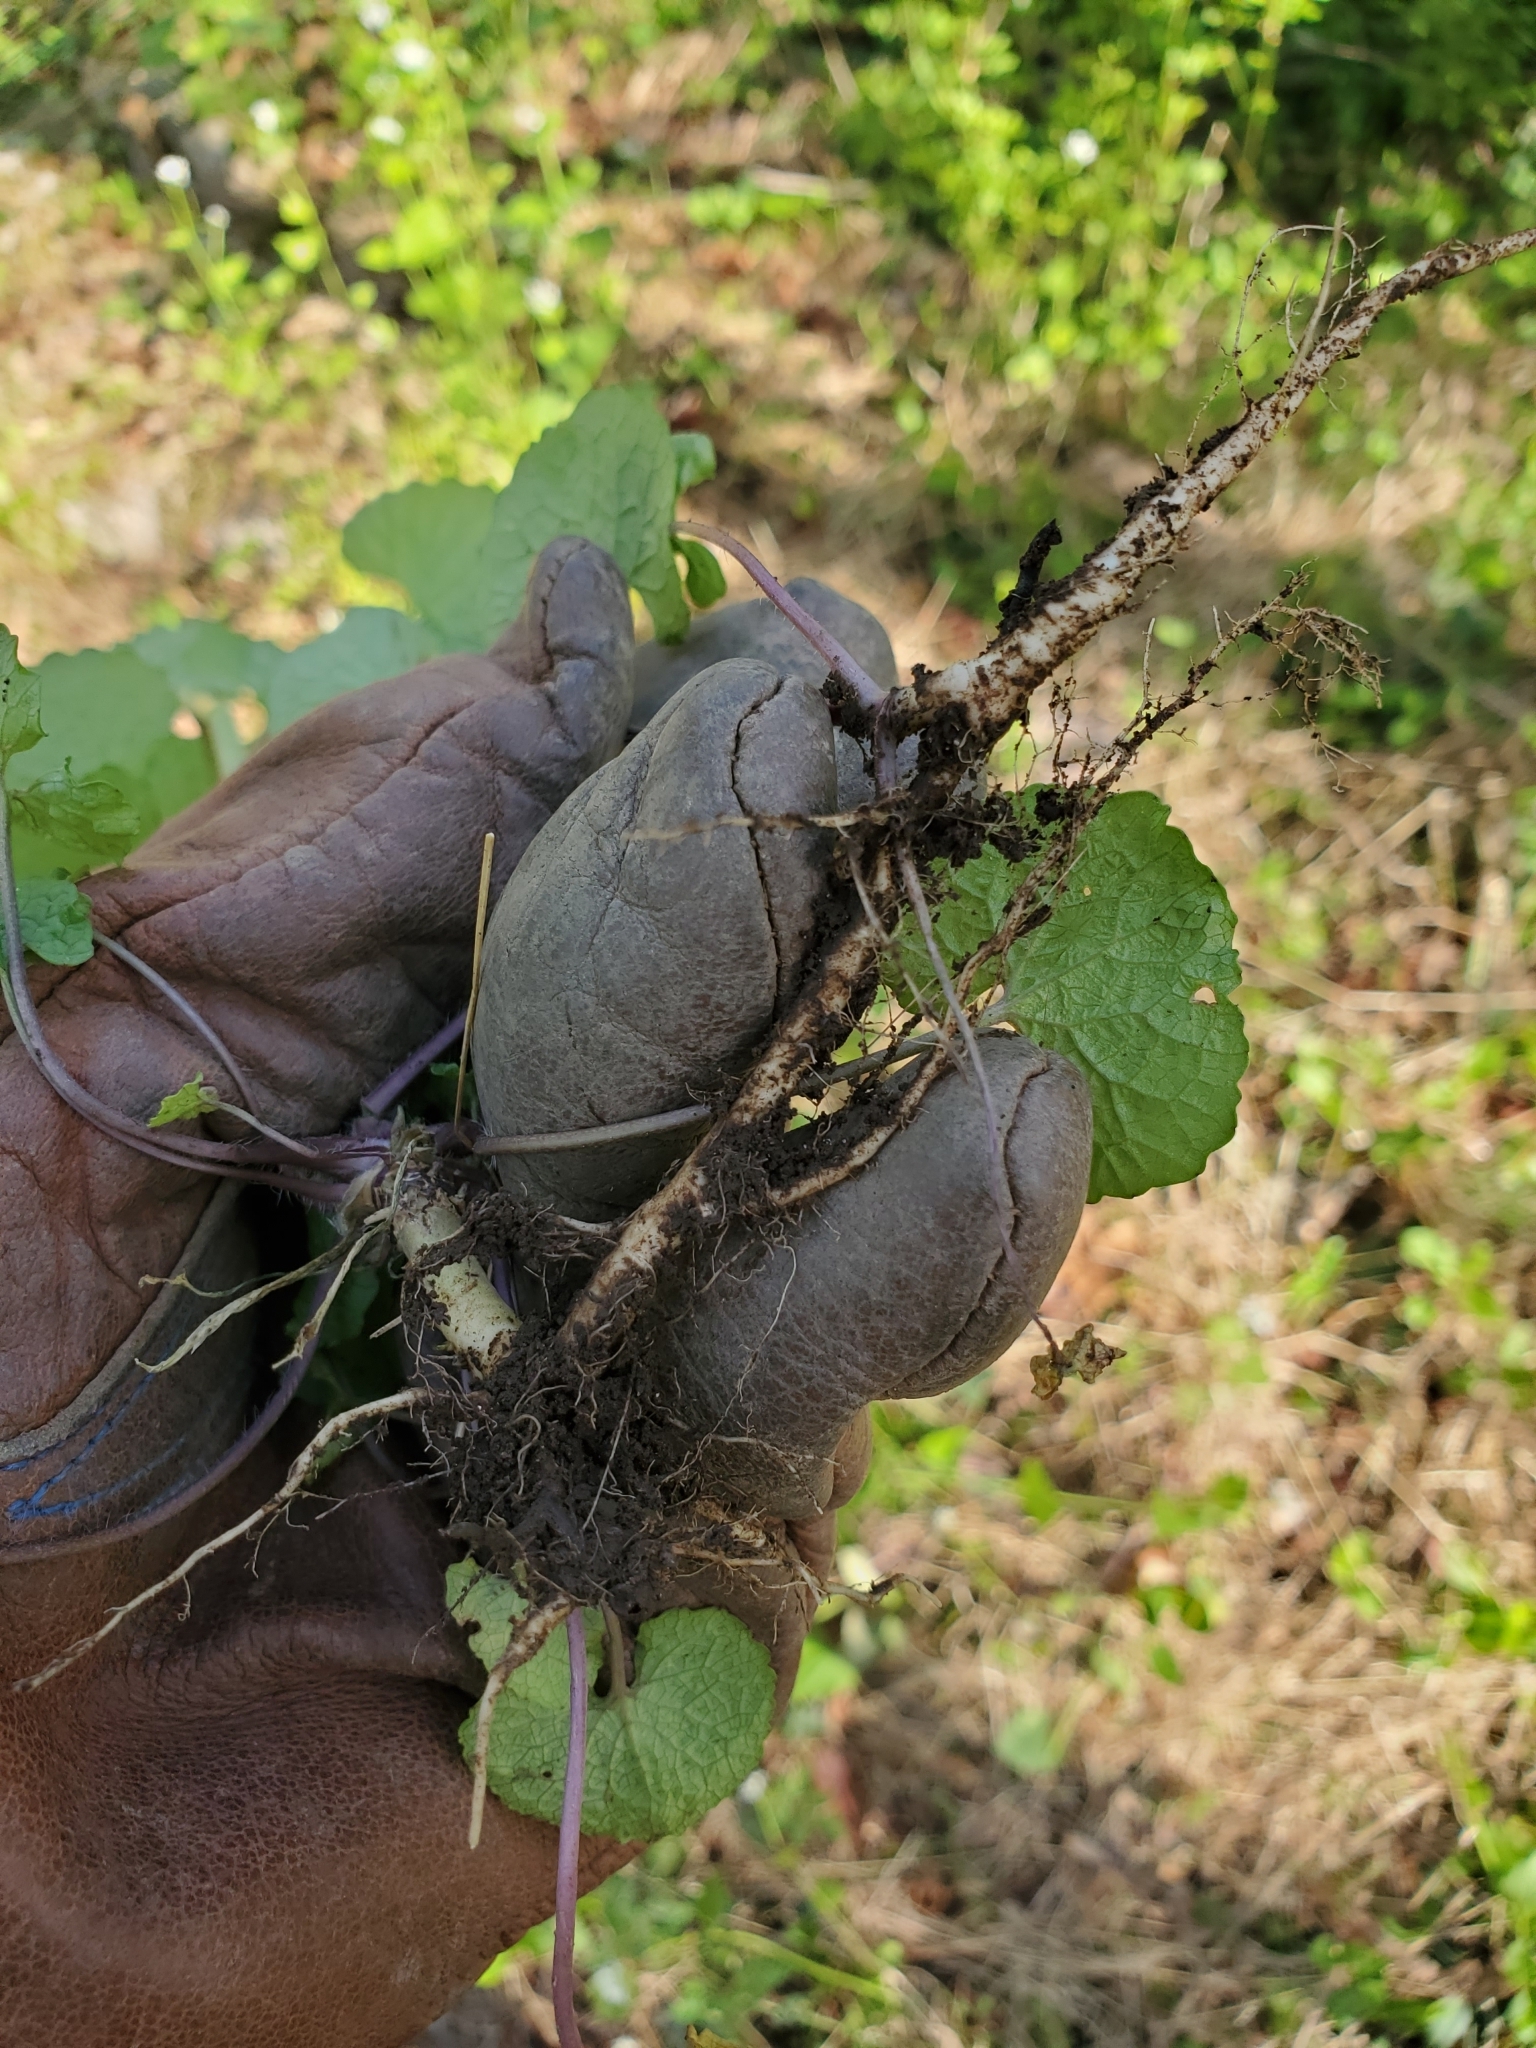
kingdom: Plantae
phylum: Tracheophyta
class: Magnoliopsida
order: Brassicales
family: Brassicaceae
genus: Alliaria
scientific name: Alliaria petiolata
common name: Garlic mustard
